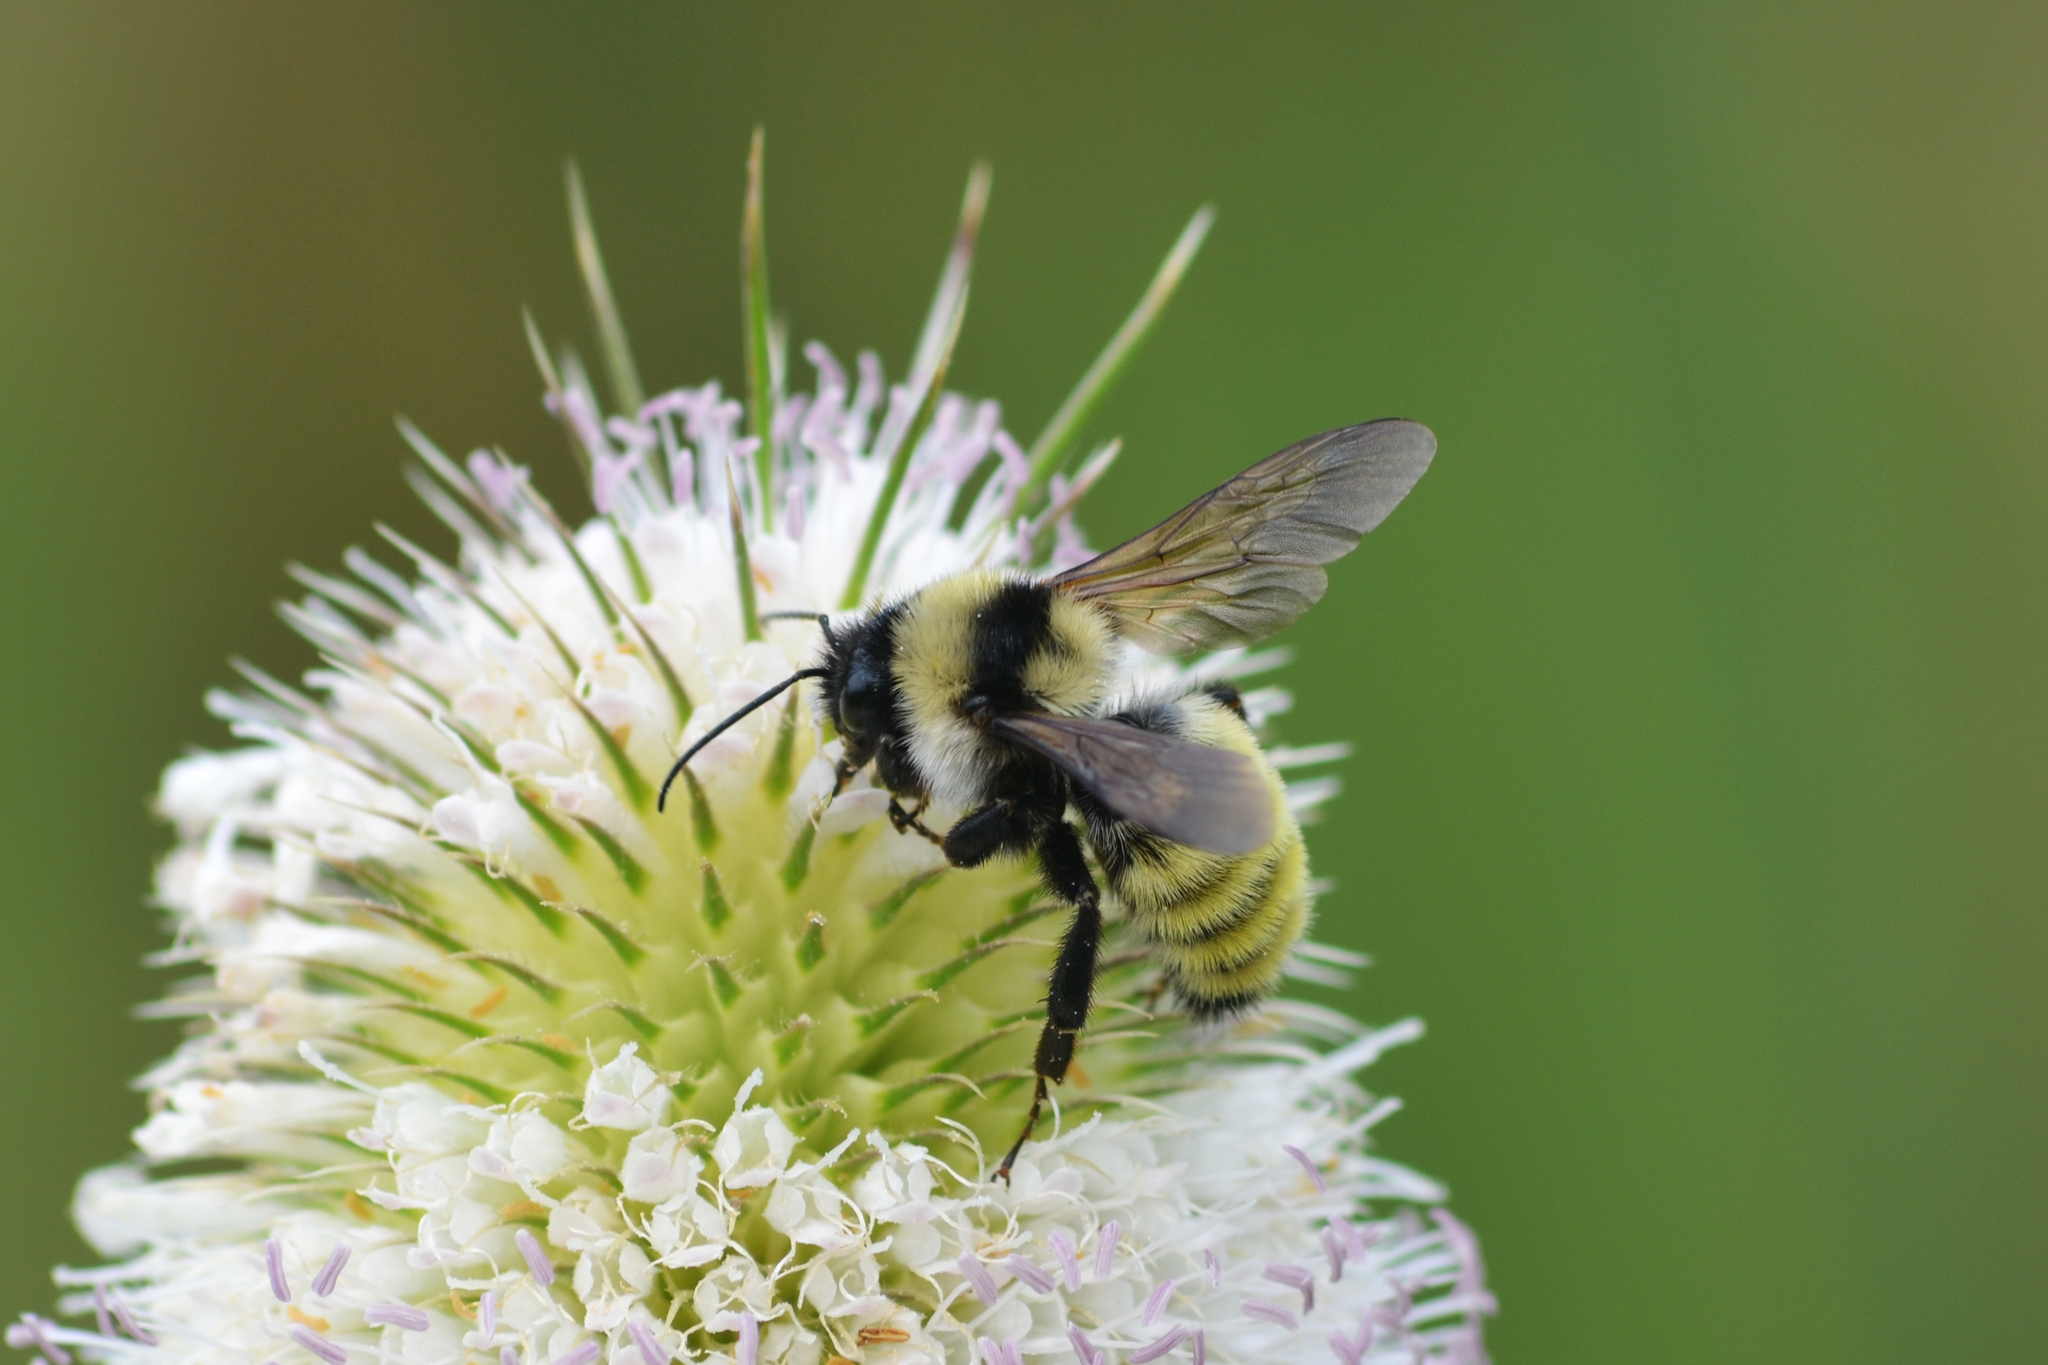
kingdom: Animalia
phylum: Arthropoda
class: Insecta
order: Hymenoptera
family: Apidae
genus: Bombus
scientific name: Bombus fervidus
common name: Yellow bumble bee
